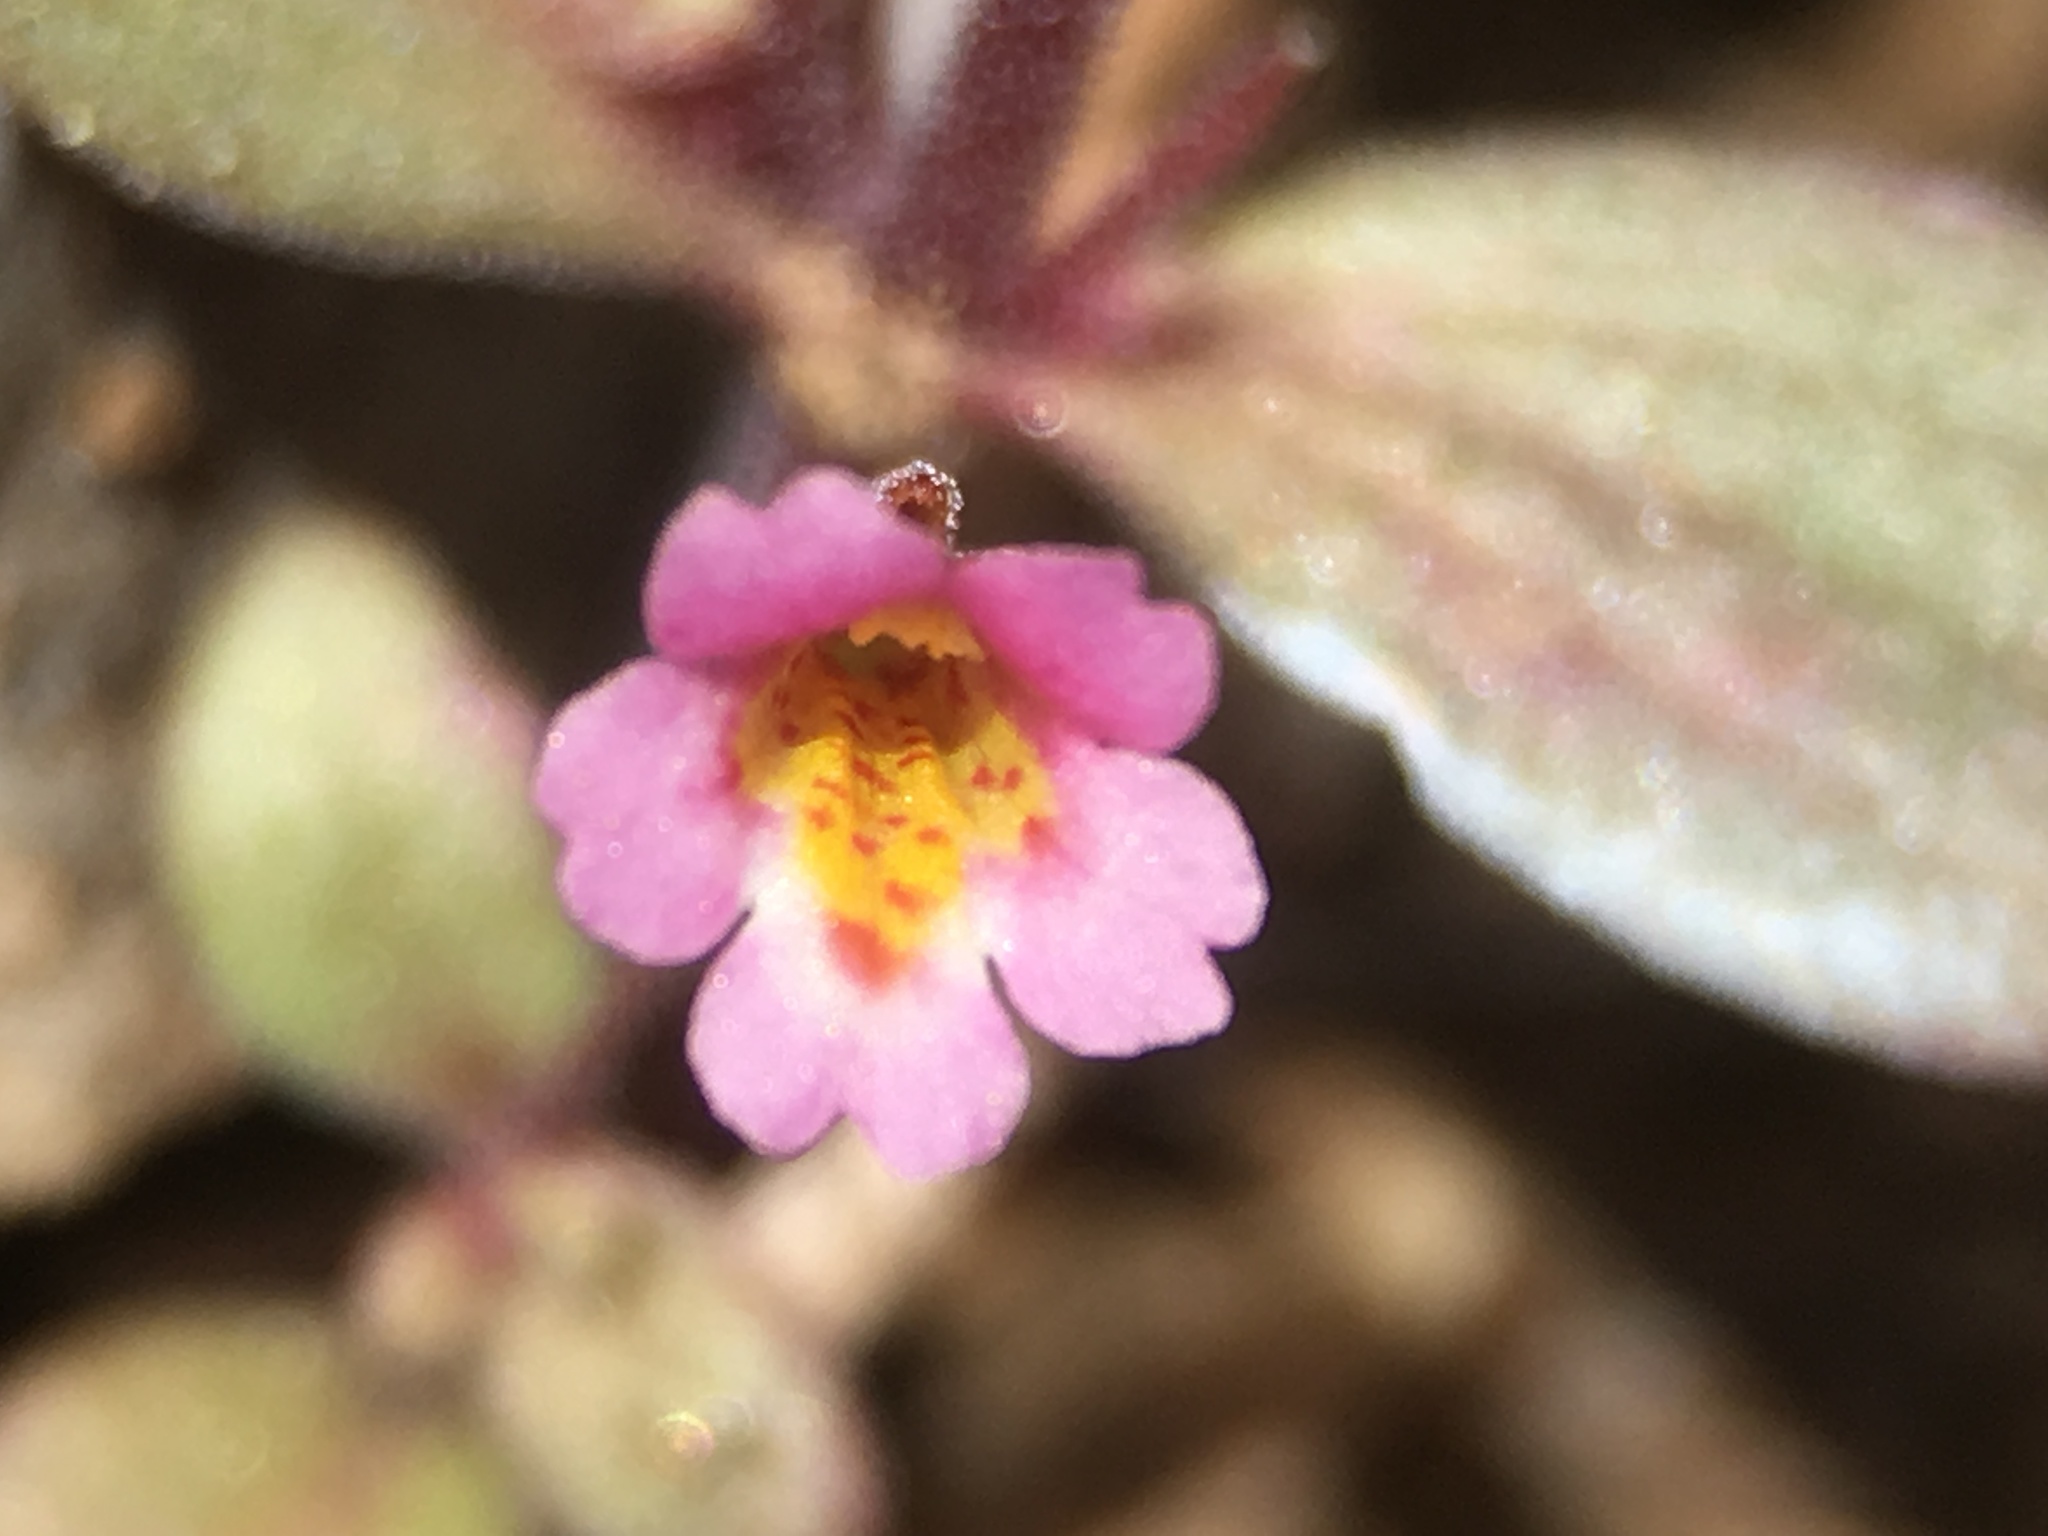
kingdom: Plantae
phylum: Tracheophyta
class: Magnoliopsida
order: Lamiales
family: Phrymaceae
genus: Erythranthe
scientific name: Erythranthe rubella
